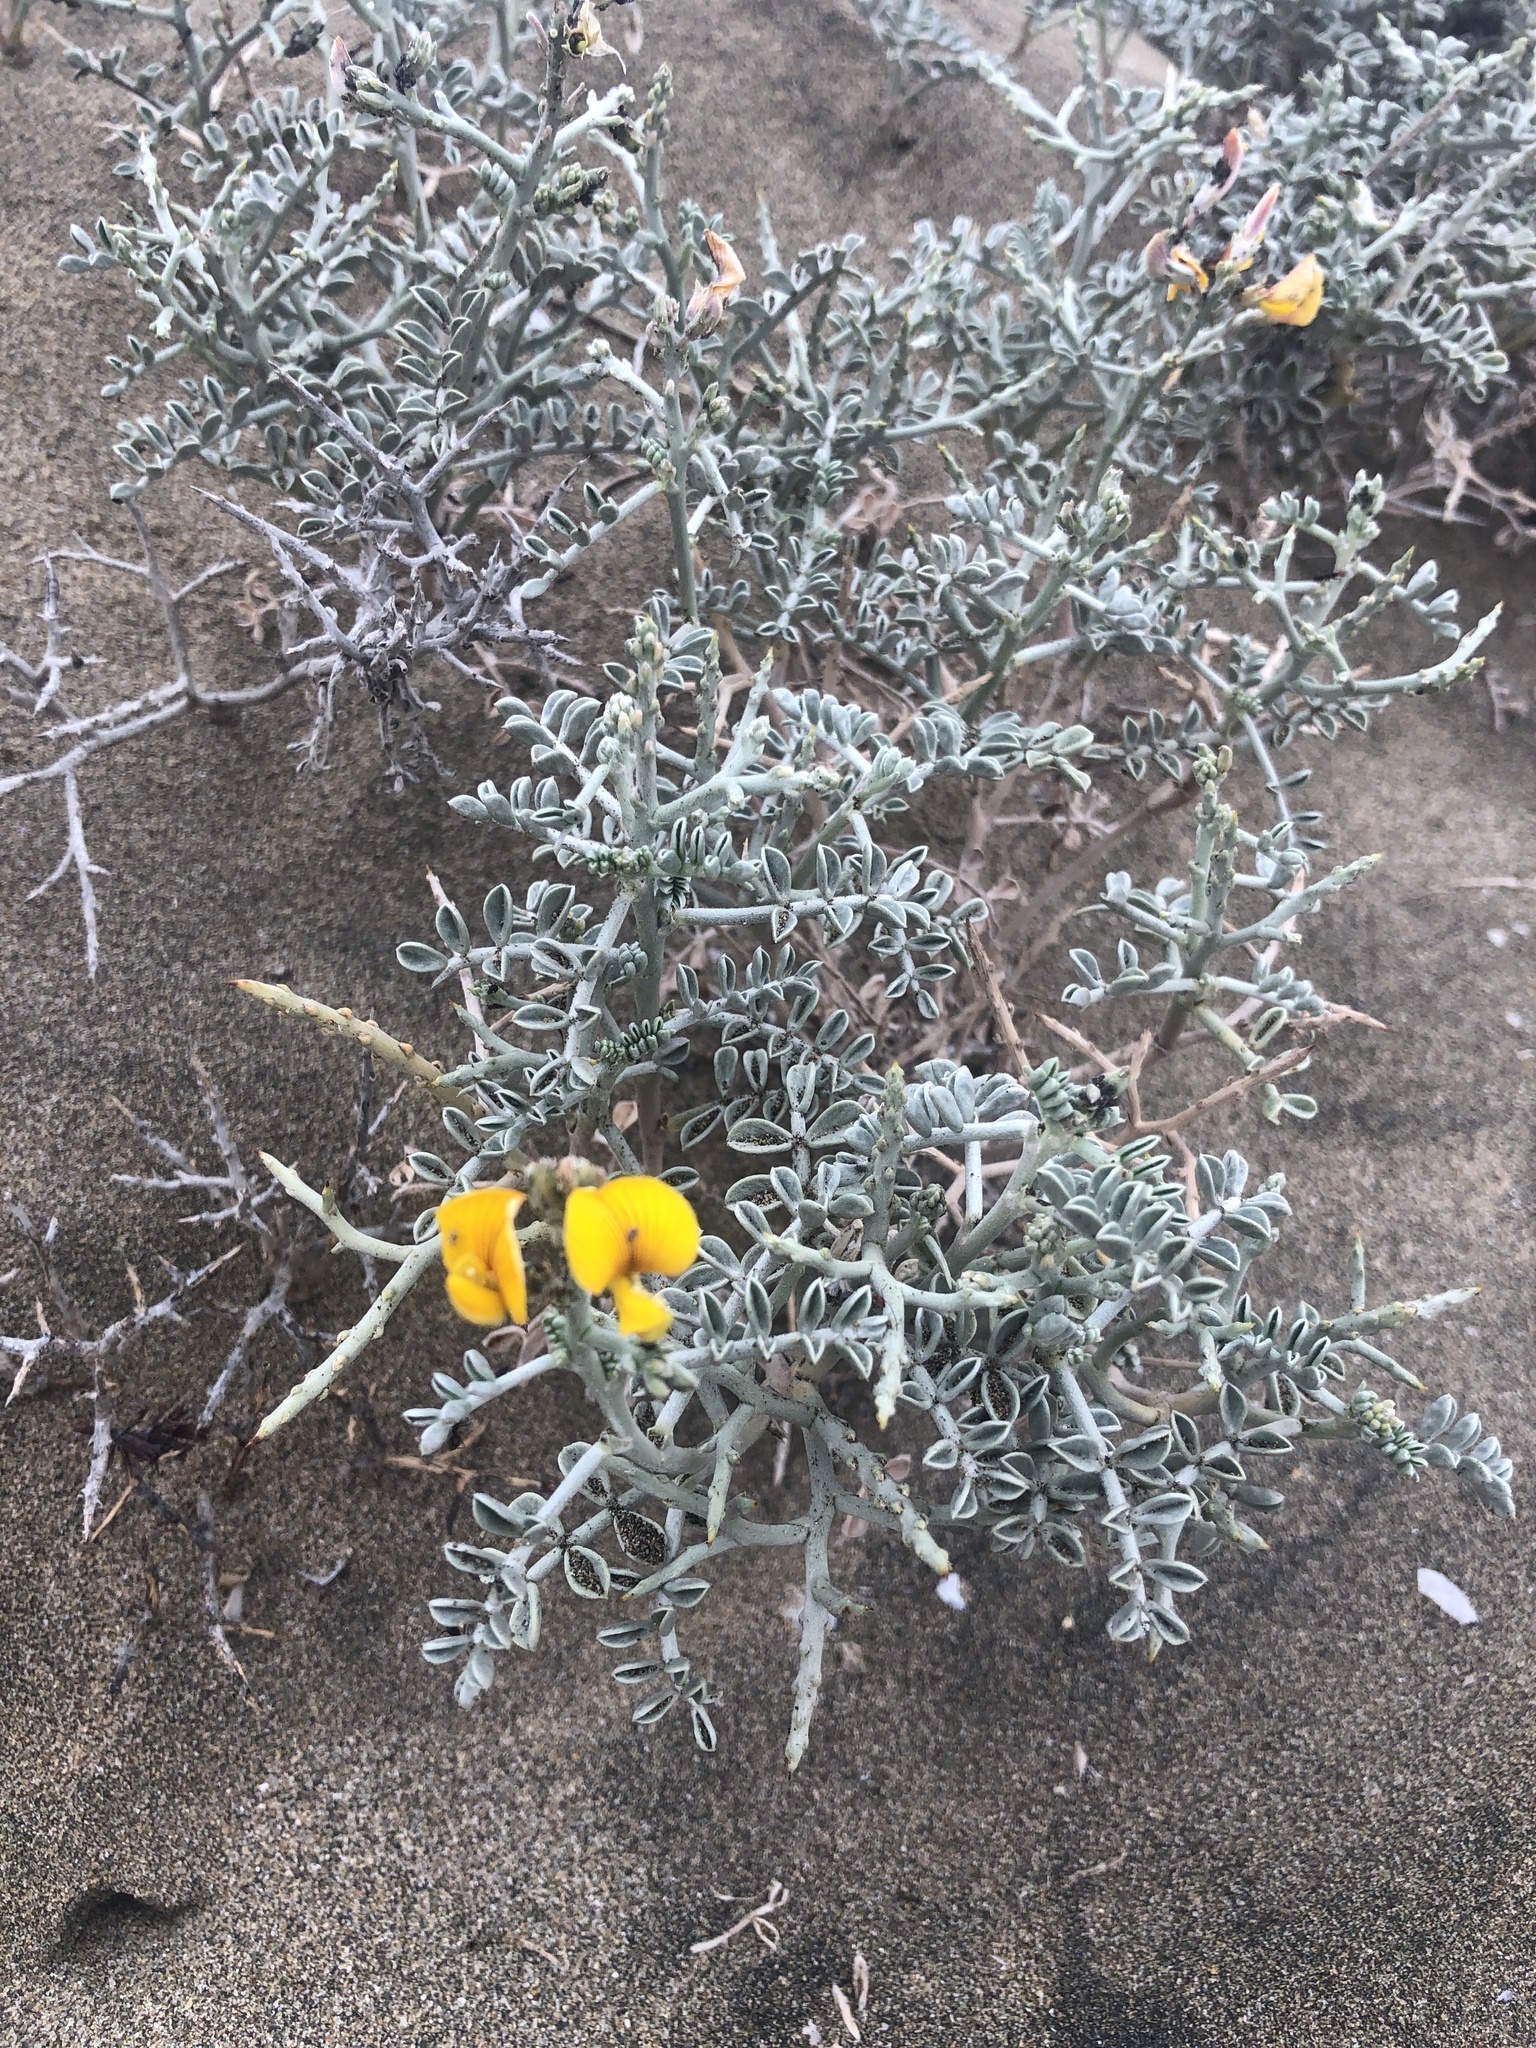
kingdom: Plantae
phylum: Tracheophyta
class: Magnoliopsida
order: Fabales
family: Fabaceae
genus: Adesmia
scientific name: Adesmia littoralis
